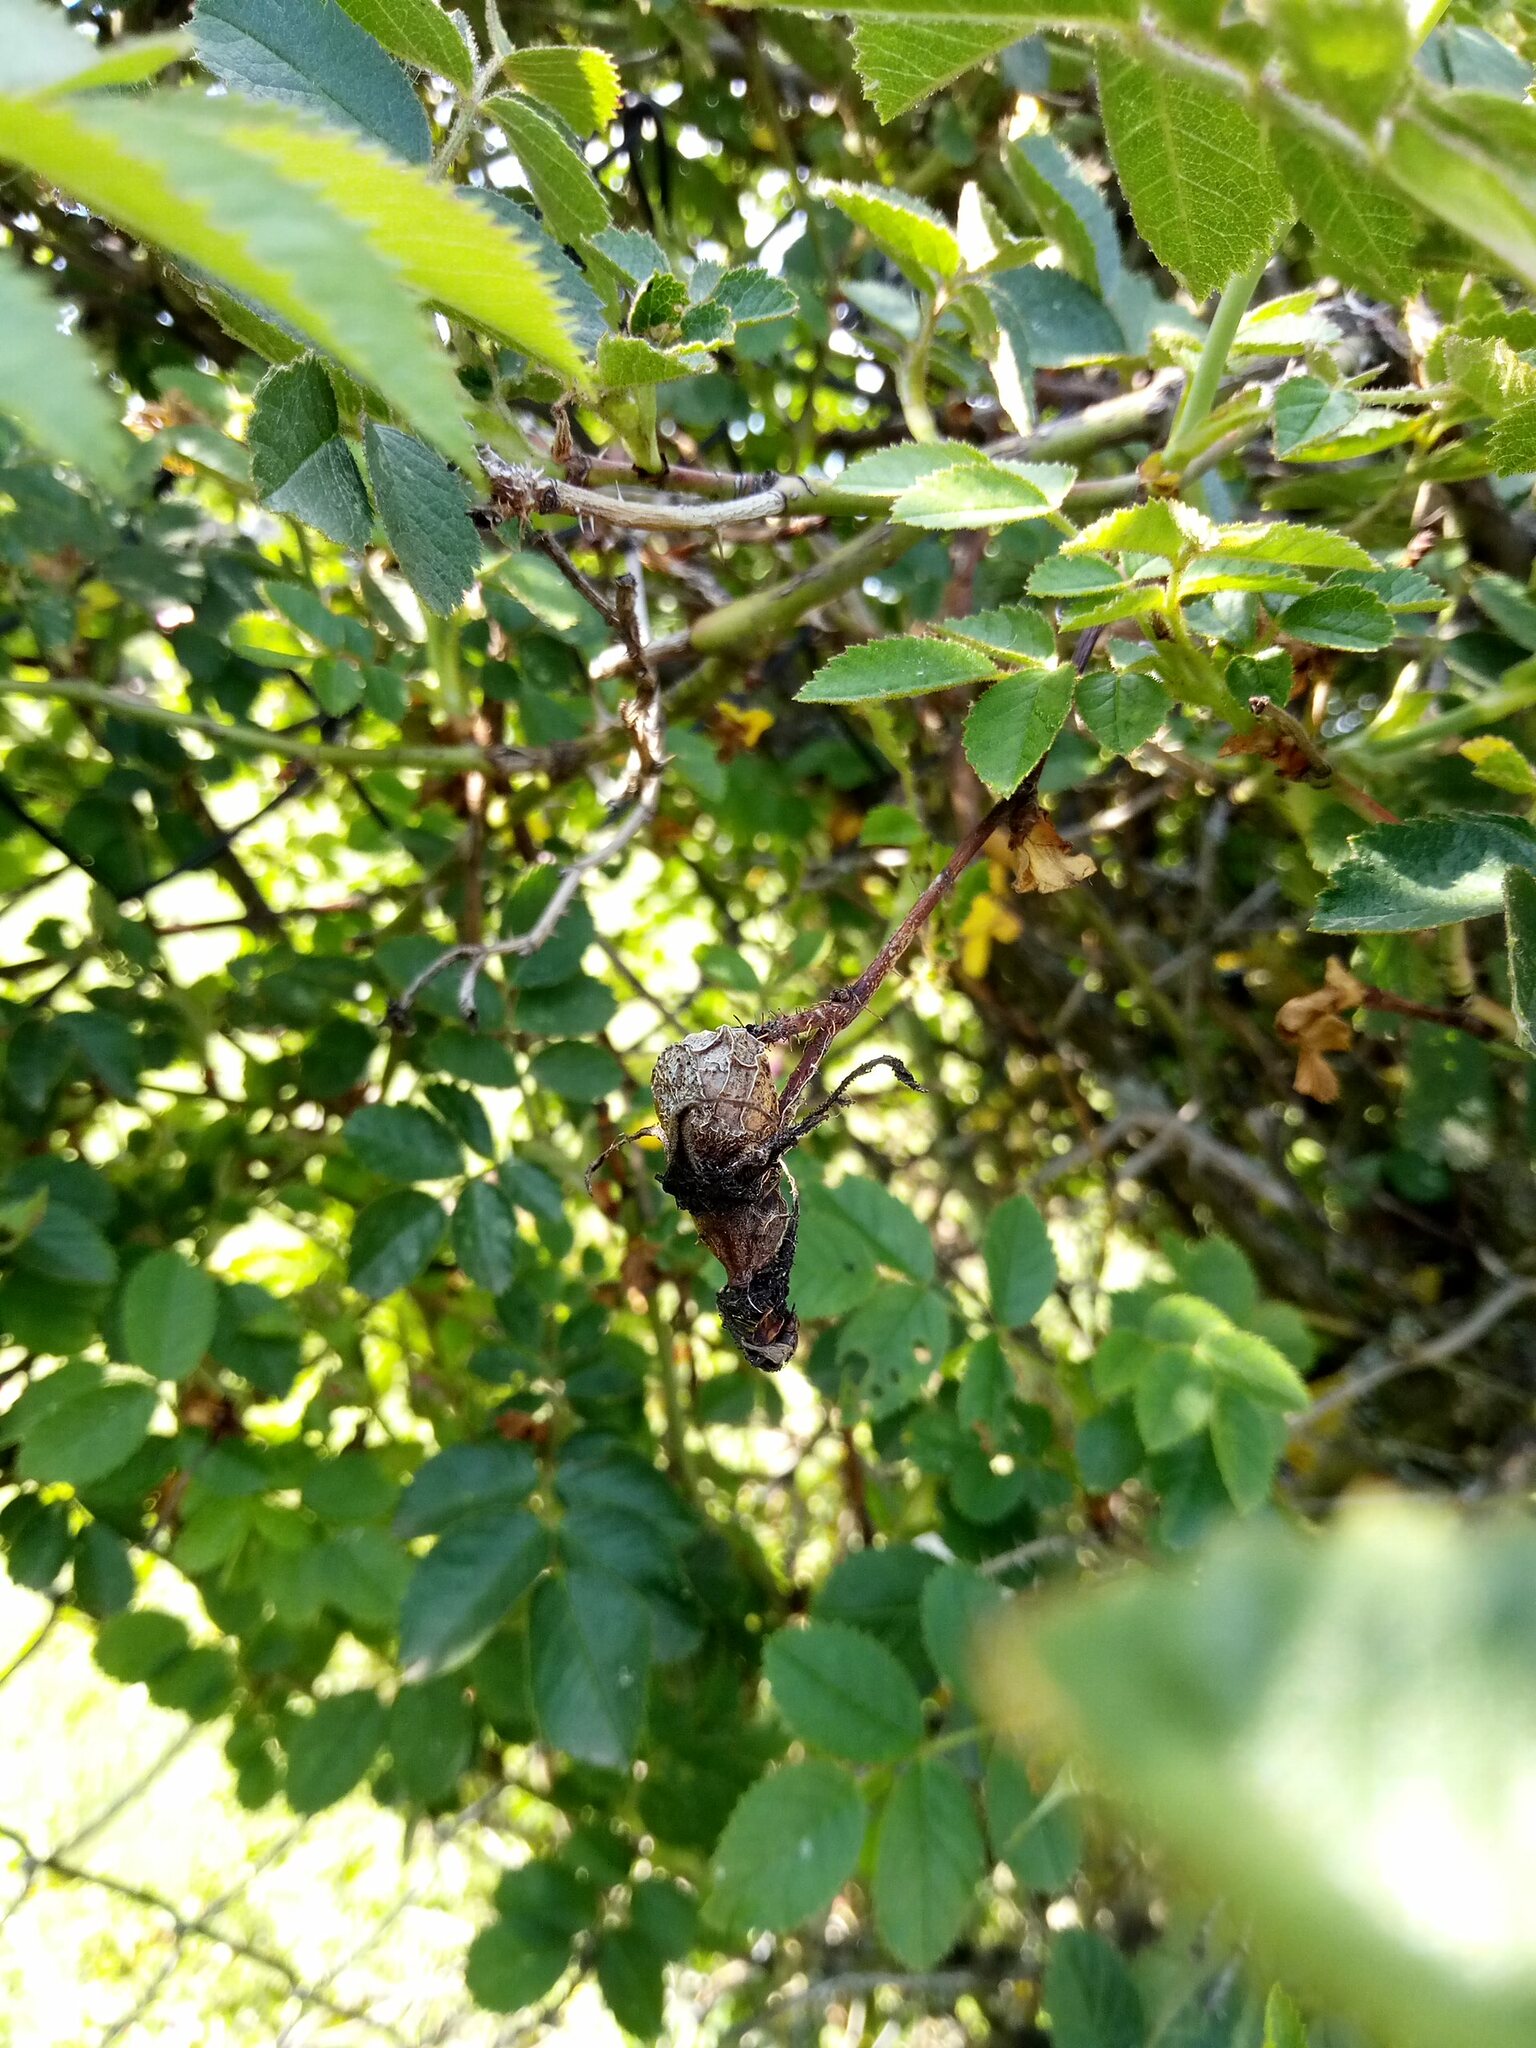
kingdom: Plantae
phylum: Tracheophyta
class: Magnoliopsida
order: Rosales
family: Rosaceae
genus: Rosa
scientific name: Rosa rubiginosa
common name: Sweet-briar
